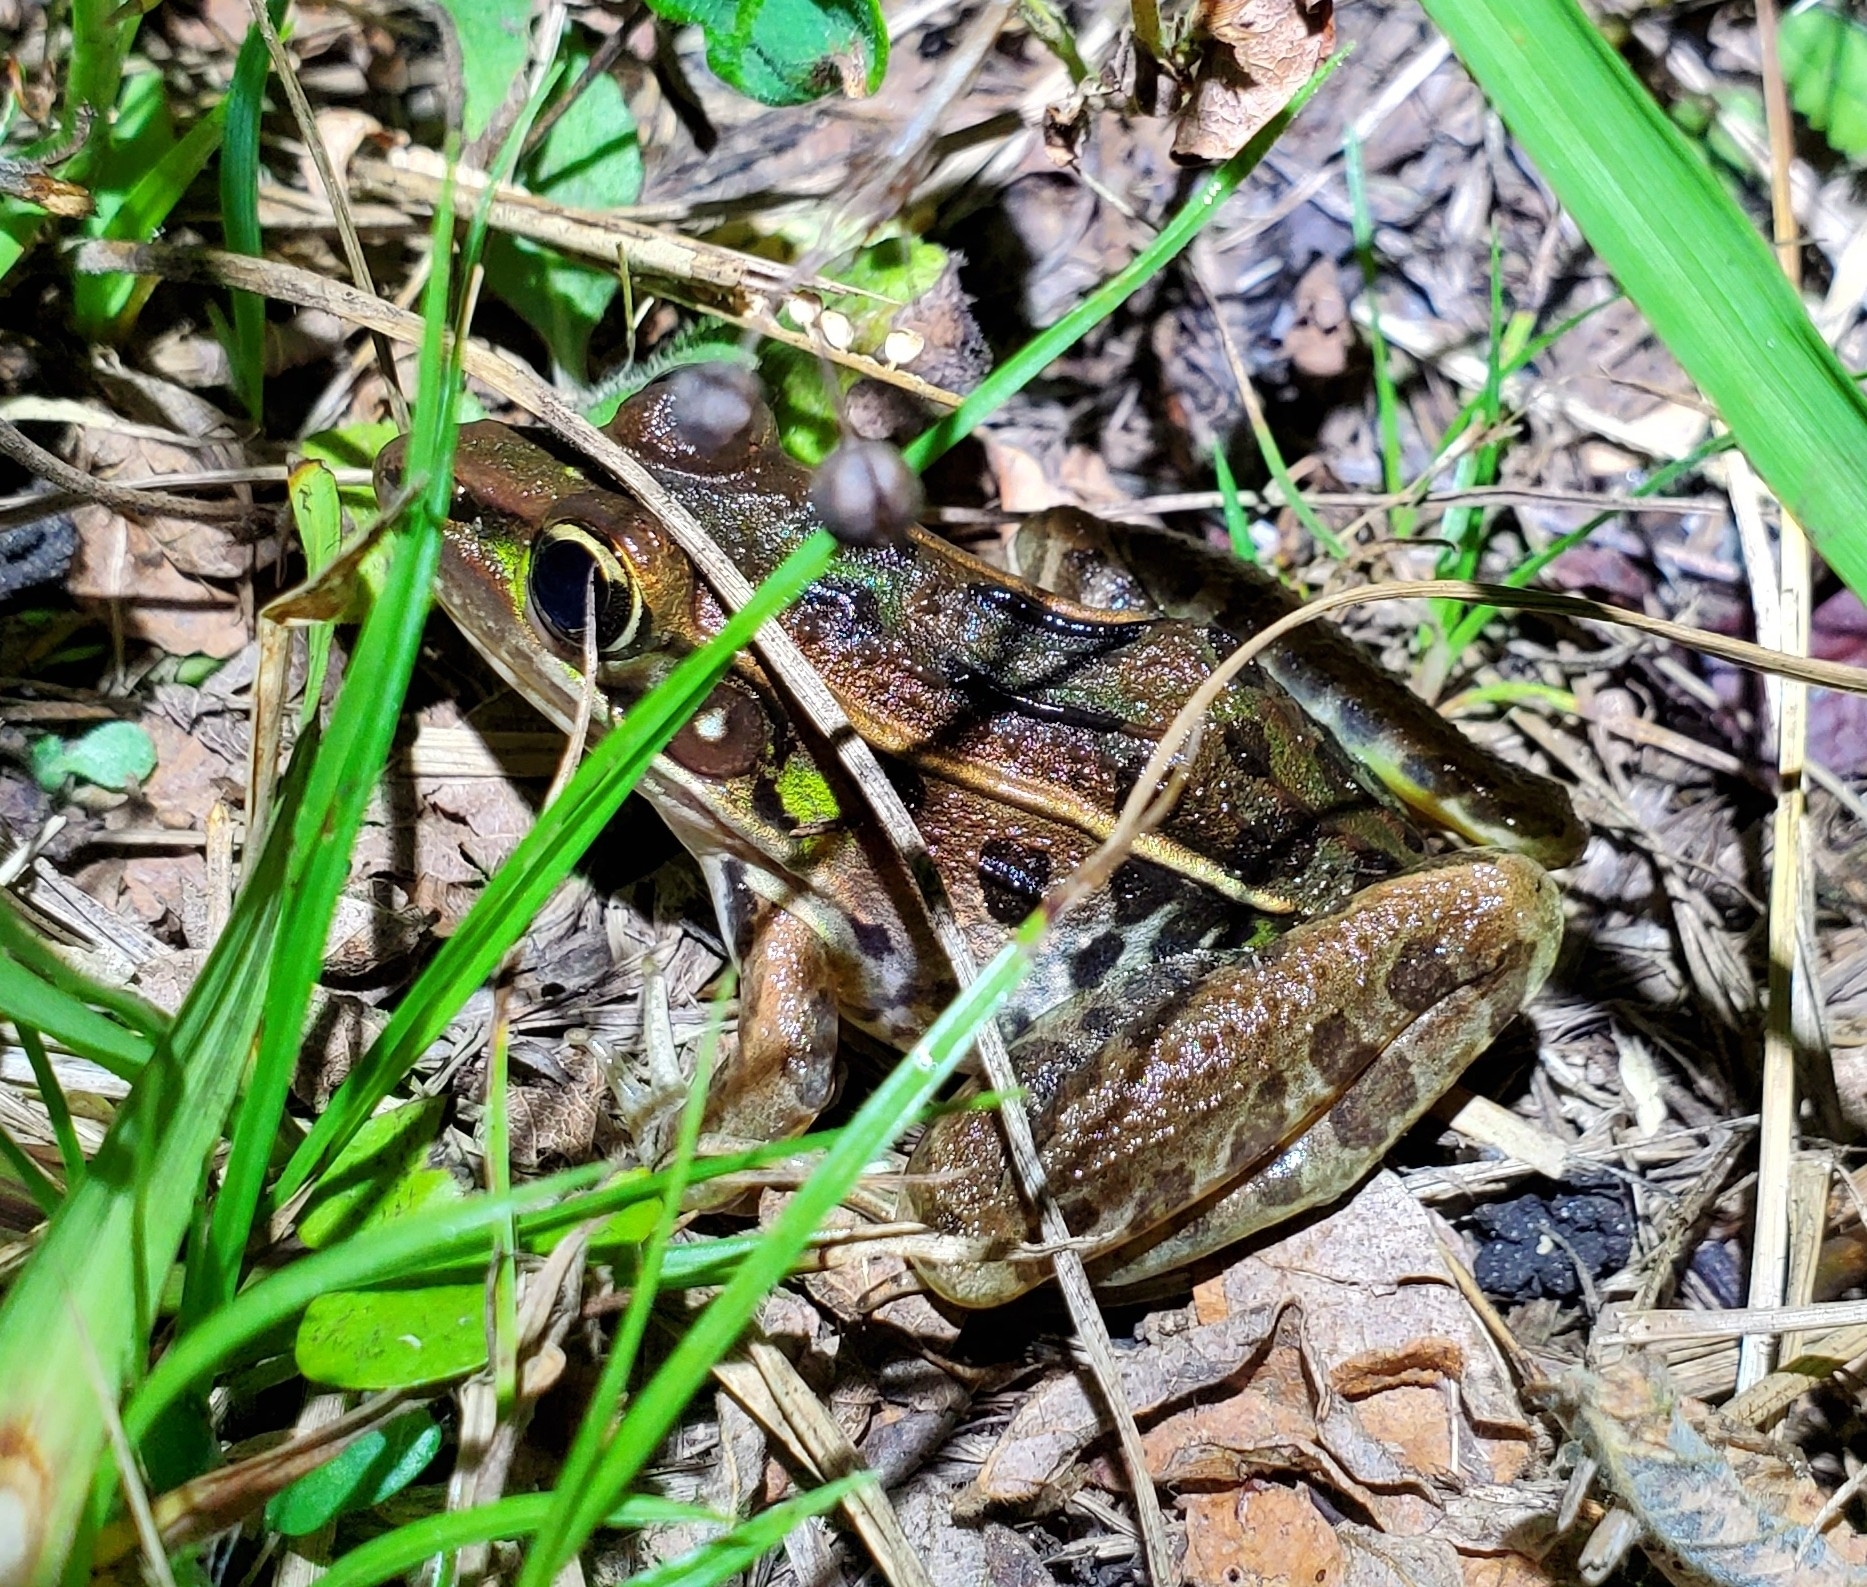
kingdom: Animalia
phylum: Chordata
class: Amphibia
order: Anura
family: Ranidae
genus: Lithobates
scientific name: Lithobates sphenocephalus
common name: Southern leopard frog
